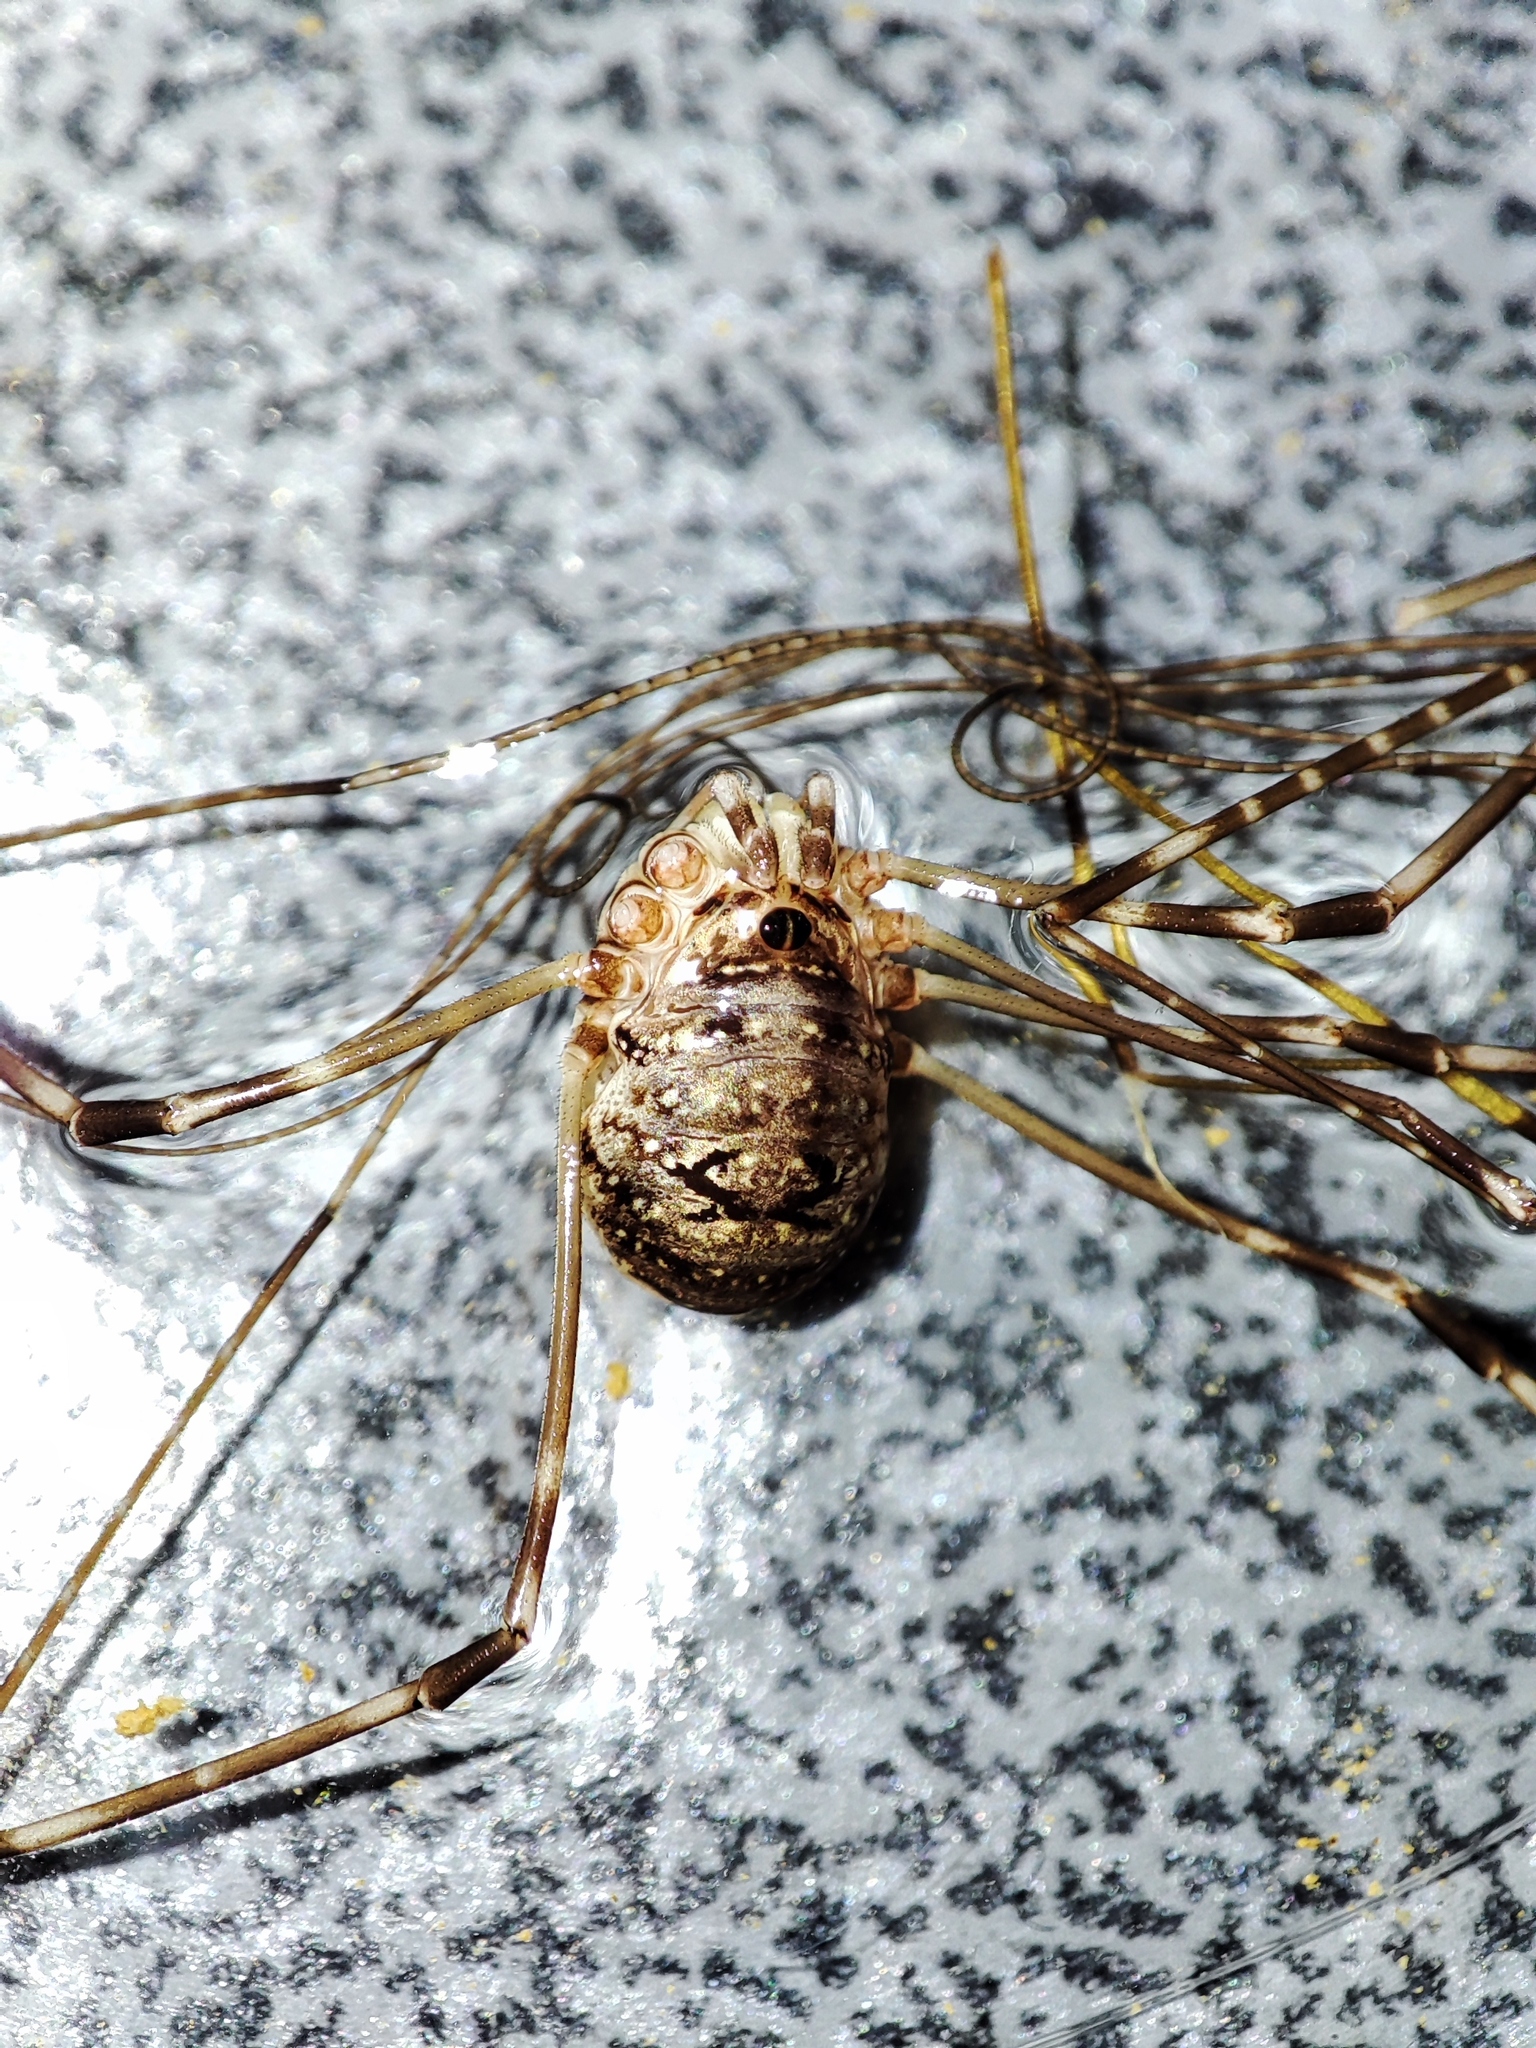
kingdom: Animalia
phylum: Arthropoda
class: Arachnida
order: Opiliones
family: Phalangiidae
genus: Amilenus
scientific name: Amilenus aurantiacus
